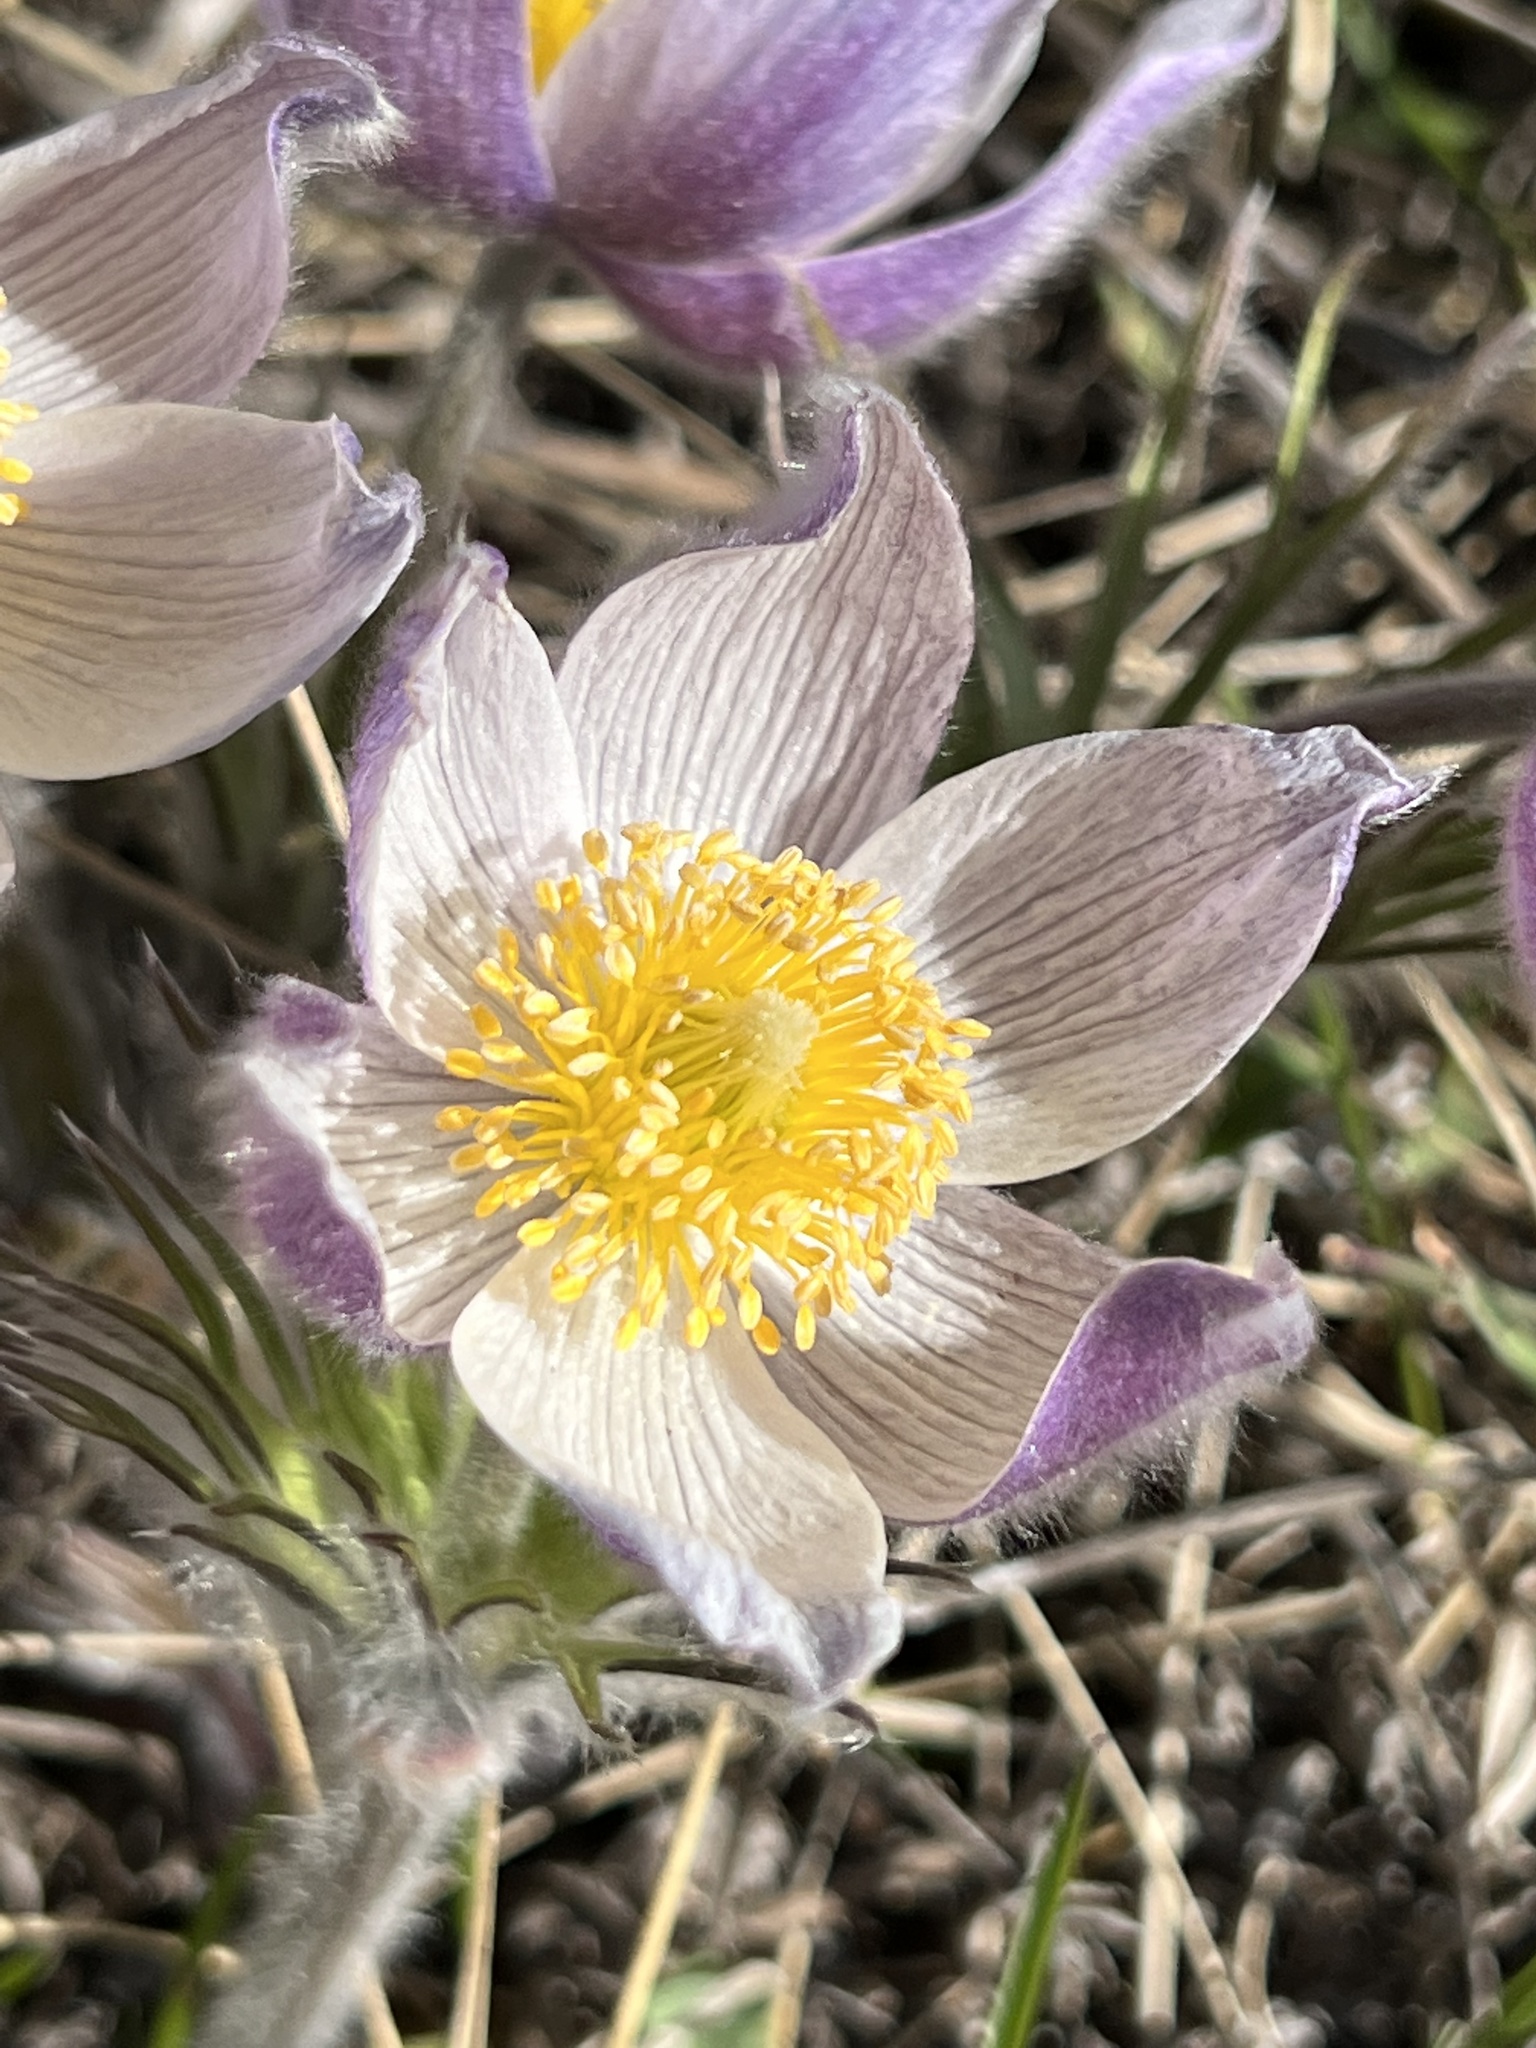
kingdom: Plantae
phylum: Tracheophyta
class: Magnoliopsida
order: Ranunculales
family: Ranunculaceae
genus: Pulsatilla
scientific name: Pulsatilla nuttalliana
